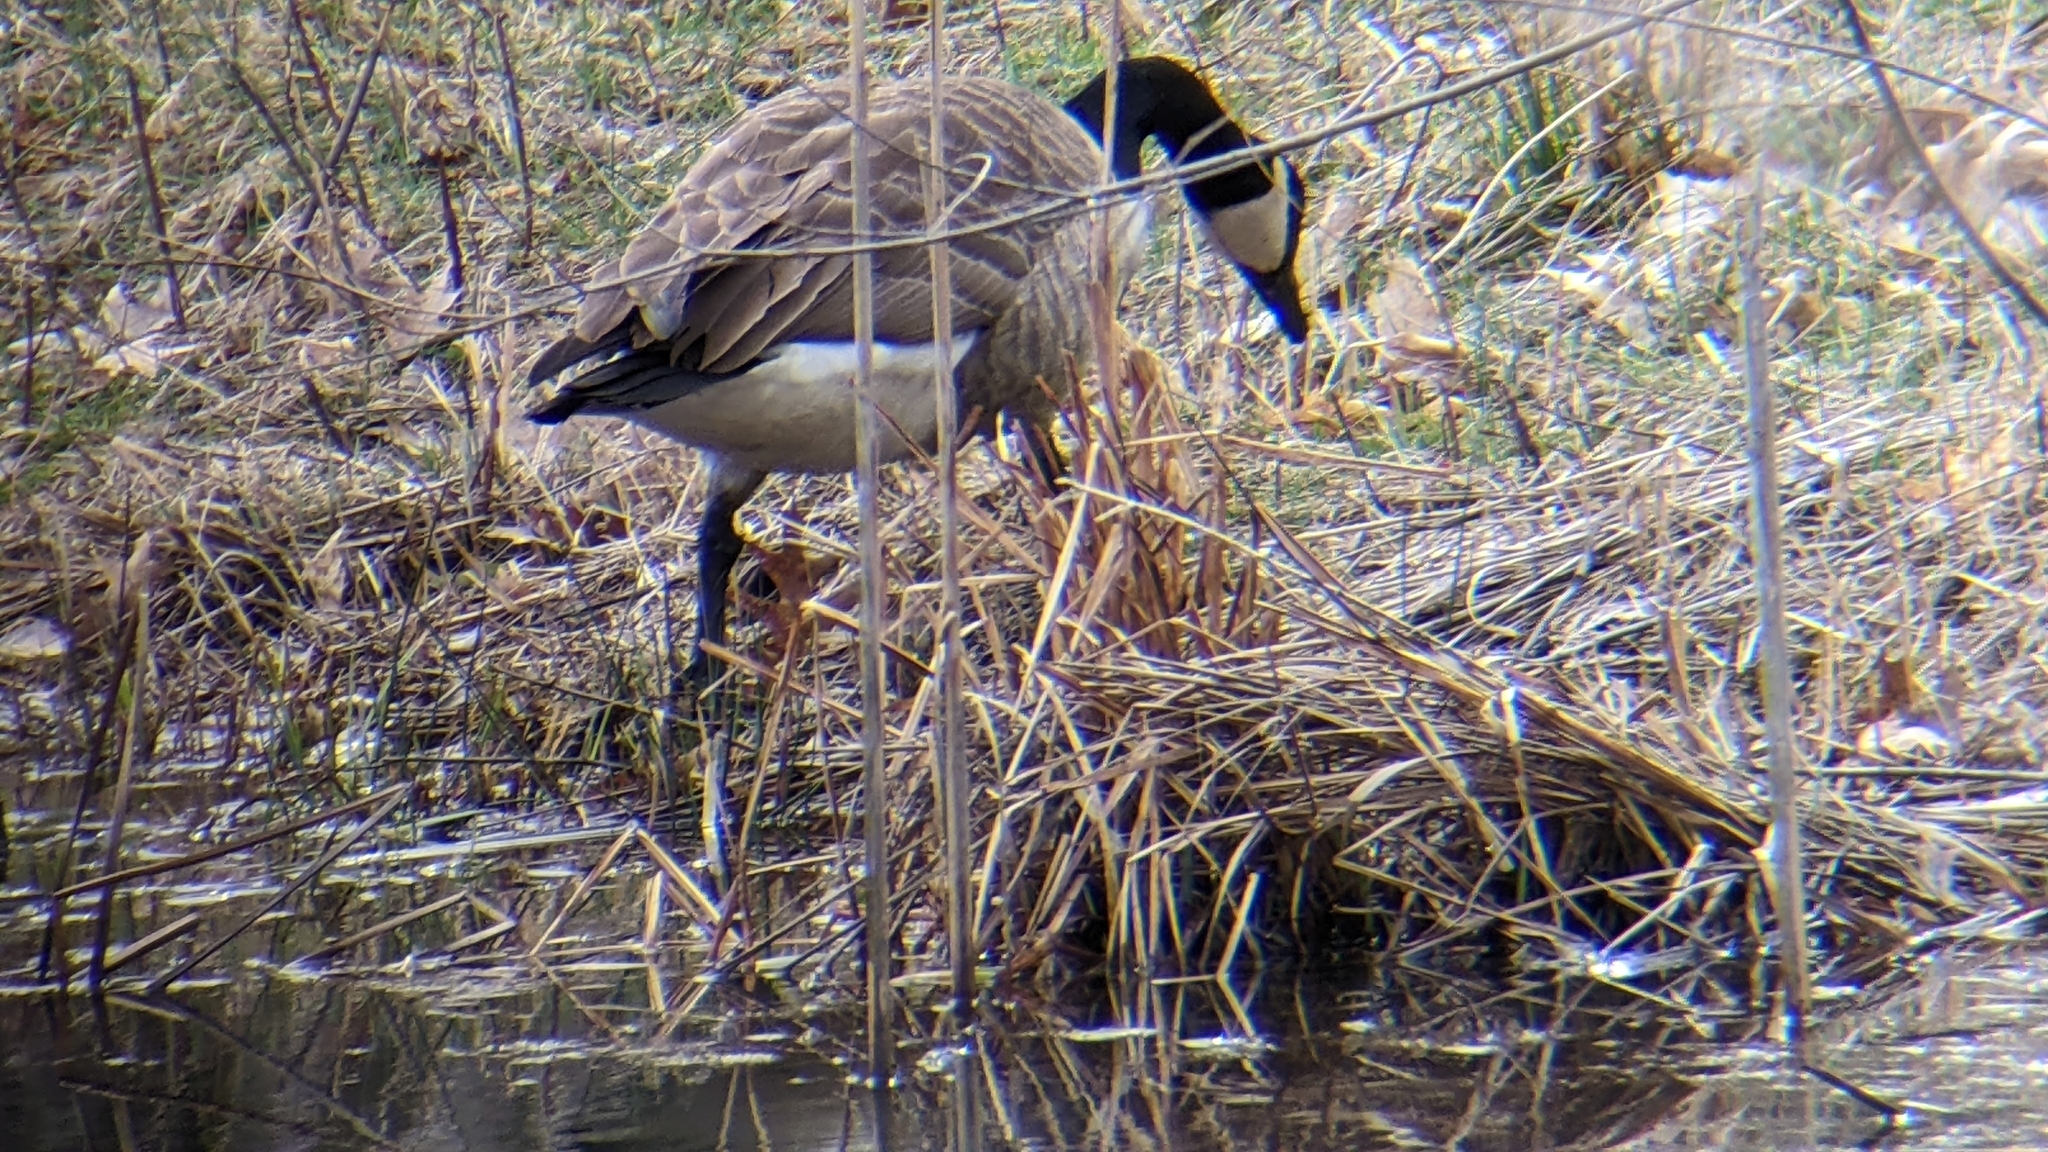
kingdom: Animalia
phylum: Chordata
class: Aves
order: Anseriformes
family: Anatidae
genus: Branta
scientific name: Branta canadensis
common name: Canada goose
